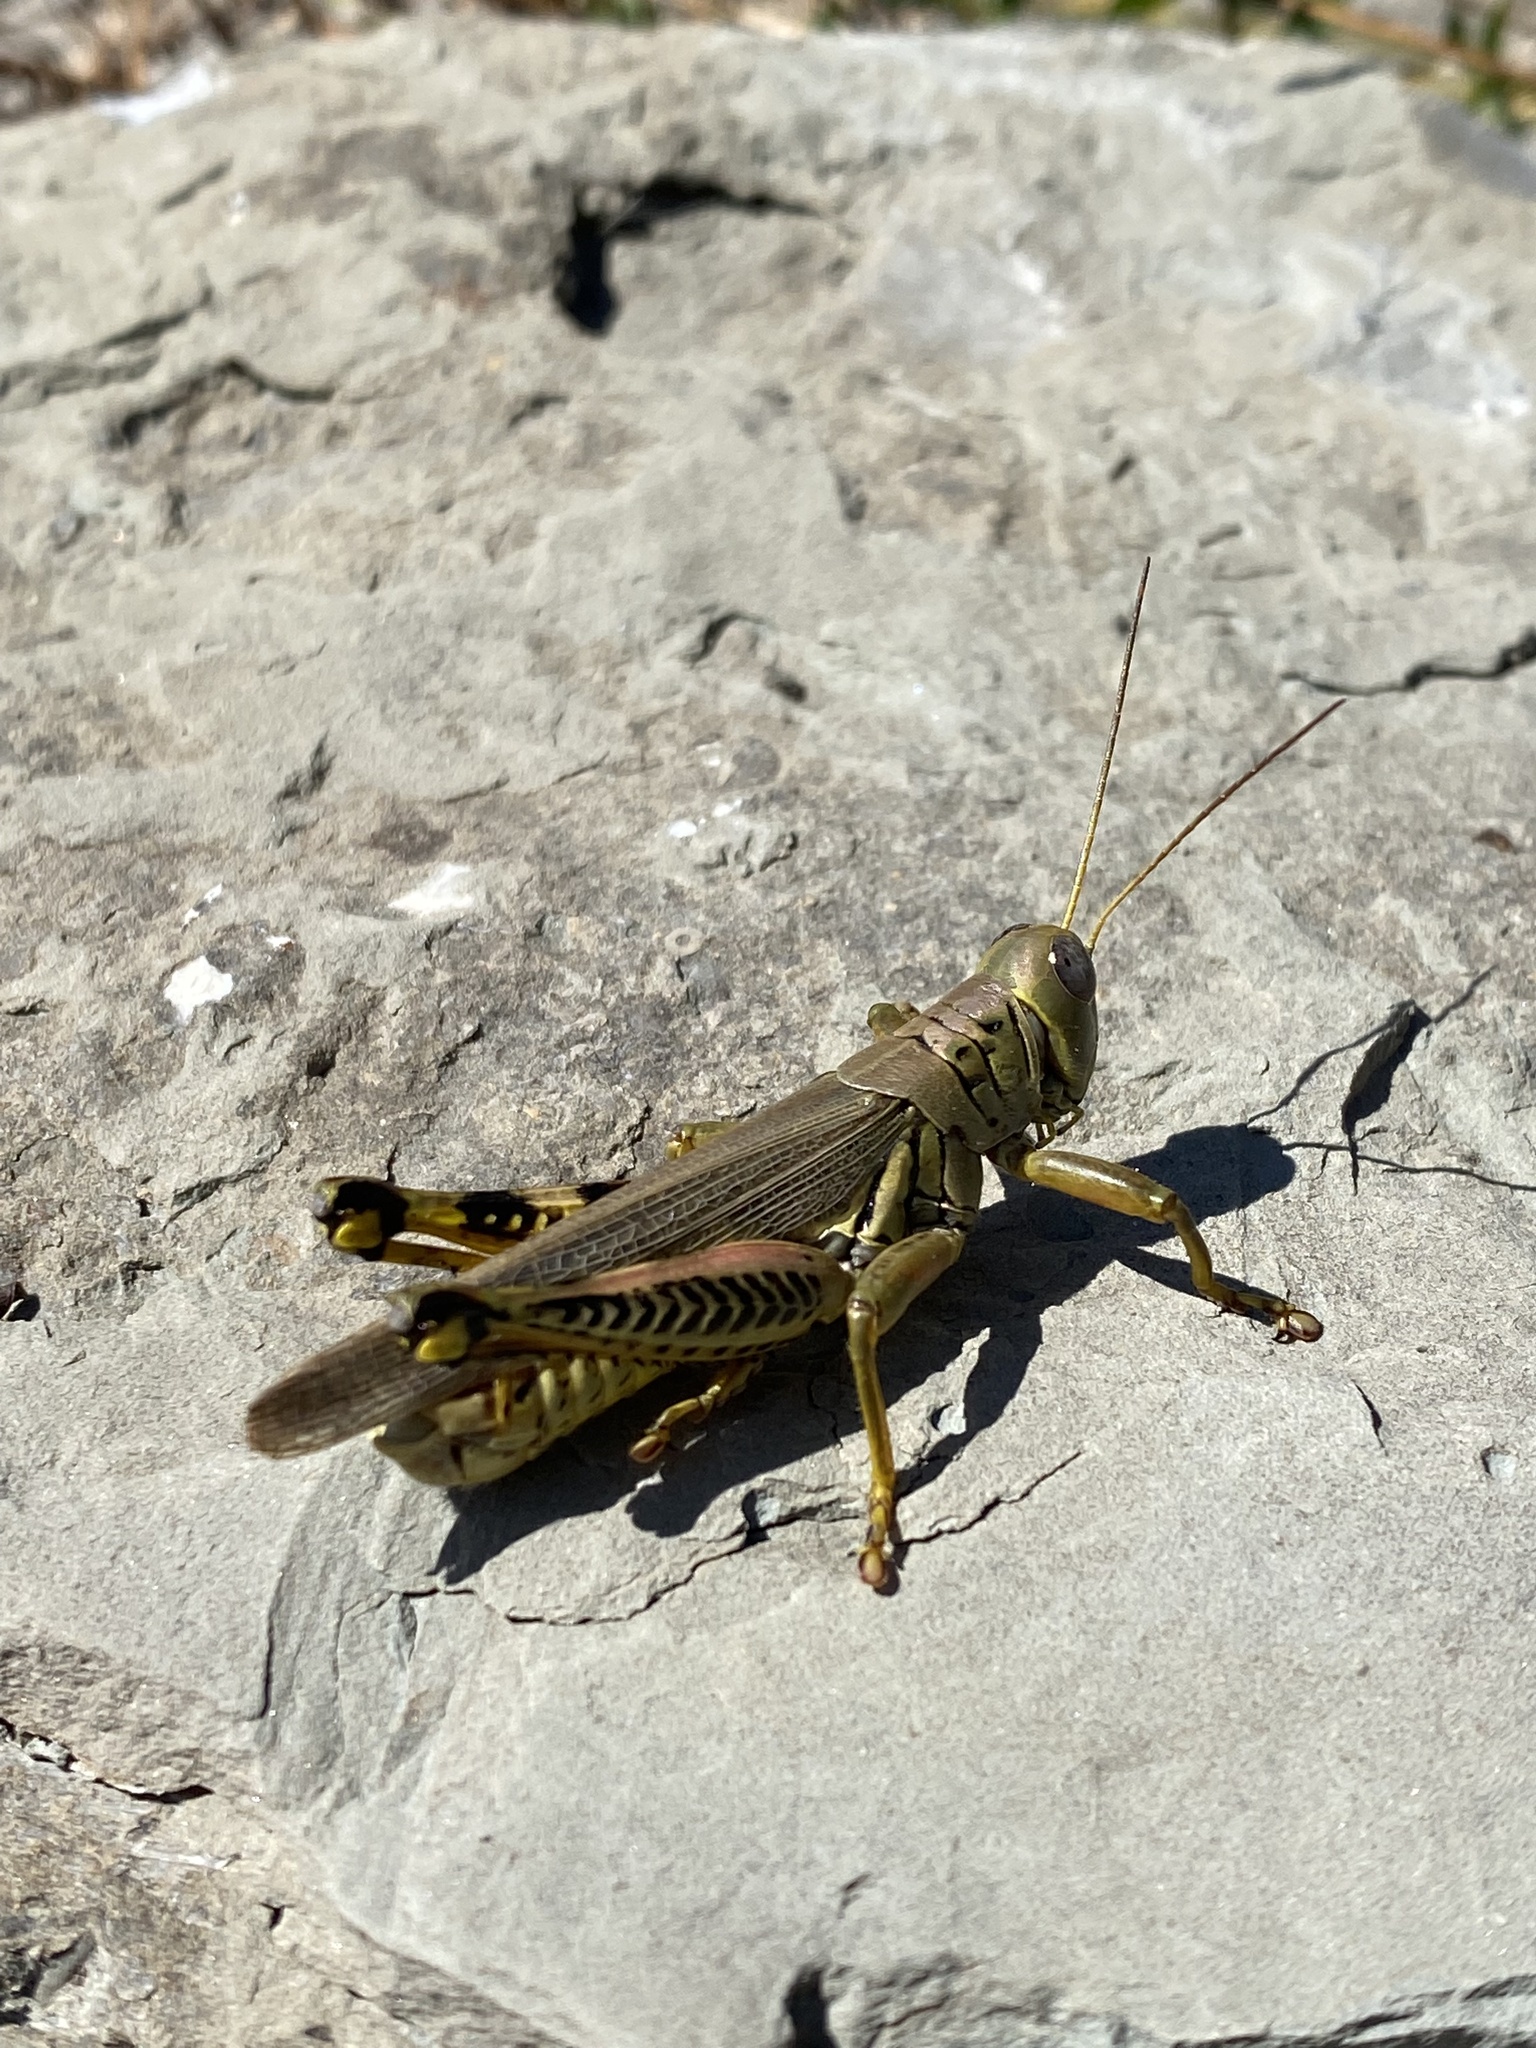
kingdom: Animalia
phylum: Arthropoda
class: Insecta
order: Orthoptera
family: Acrididae
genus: Melanoplus
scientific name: Melanoplus differentialis
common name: Differential grasshopper
